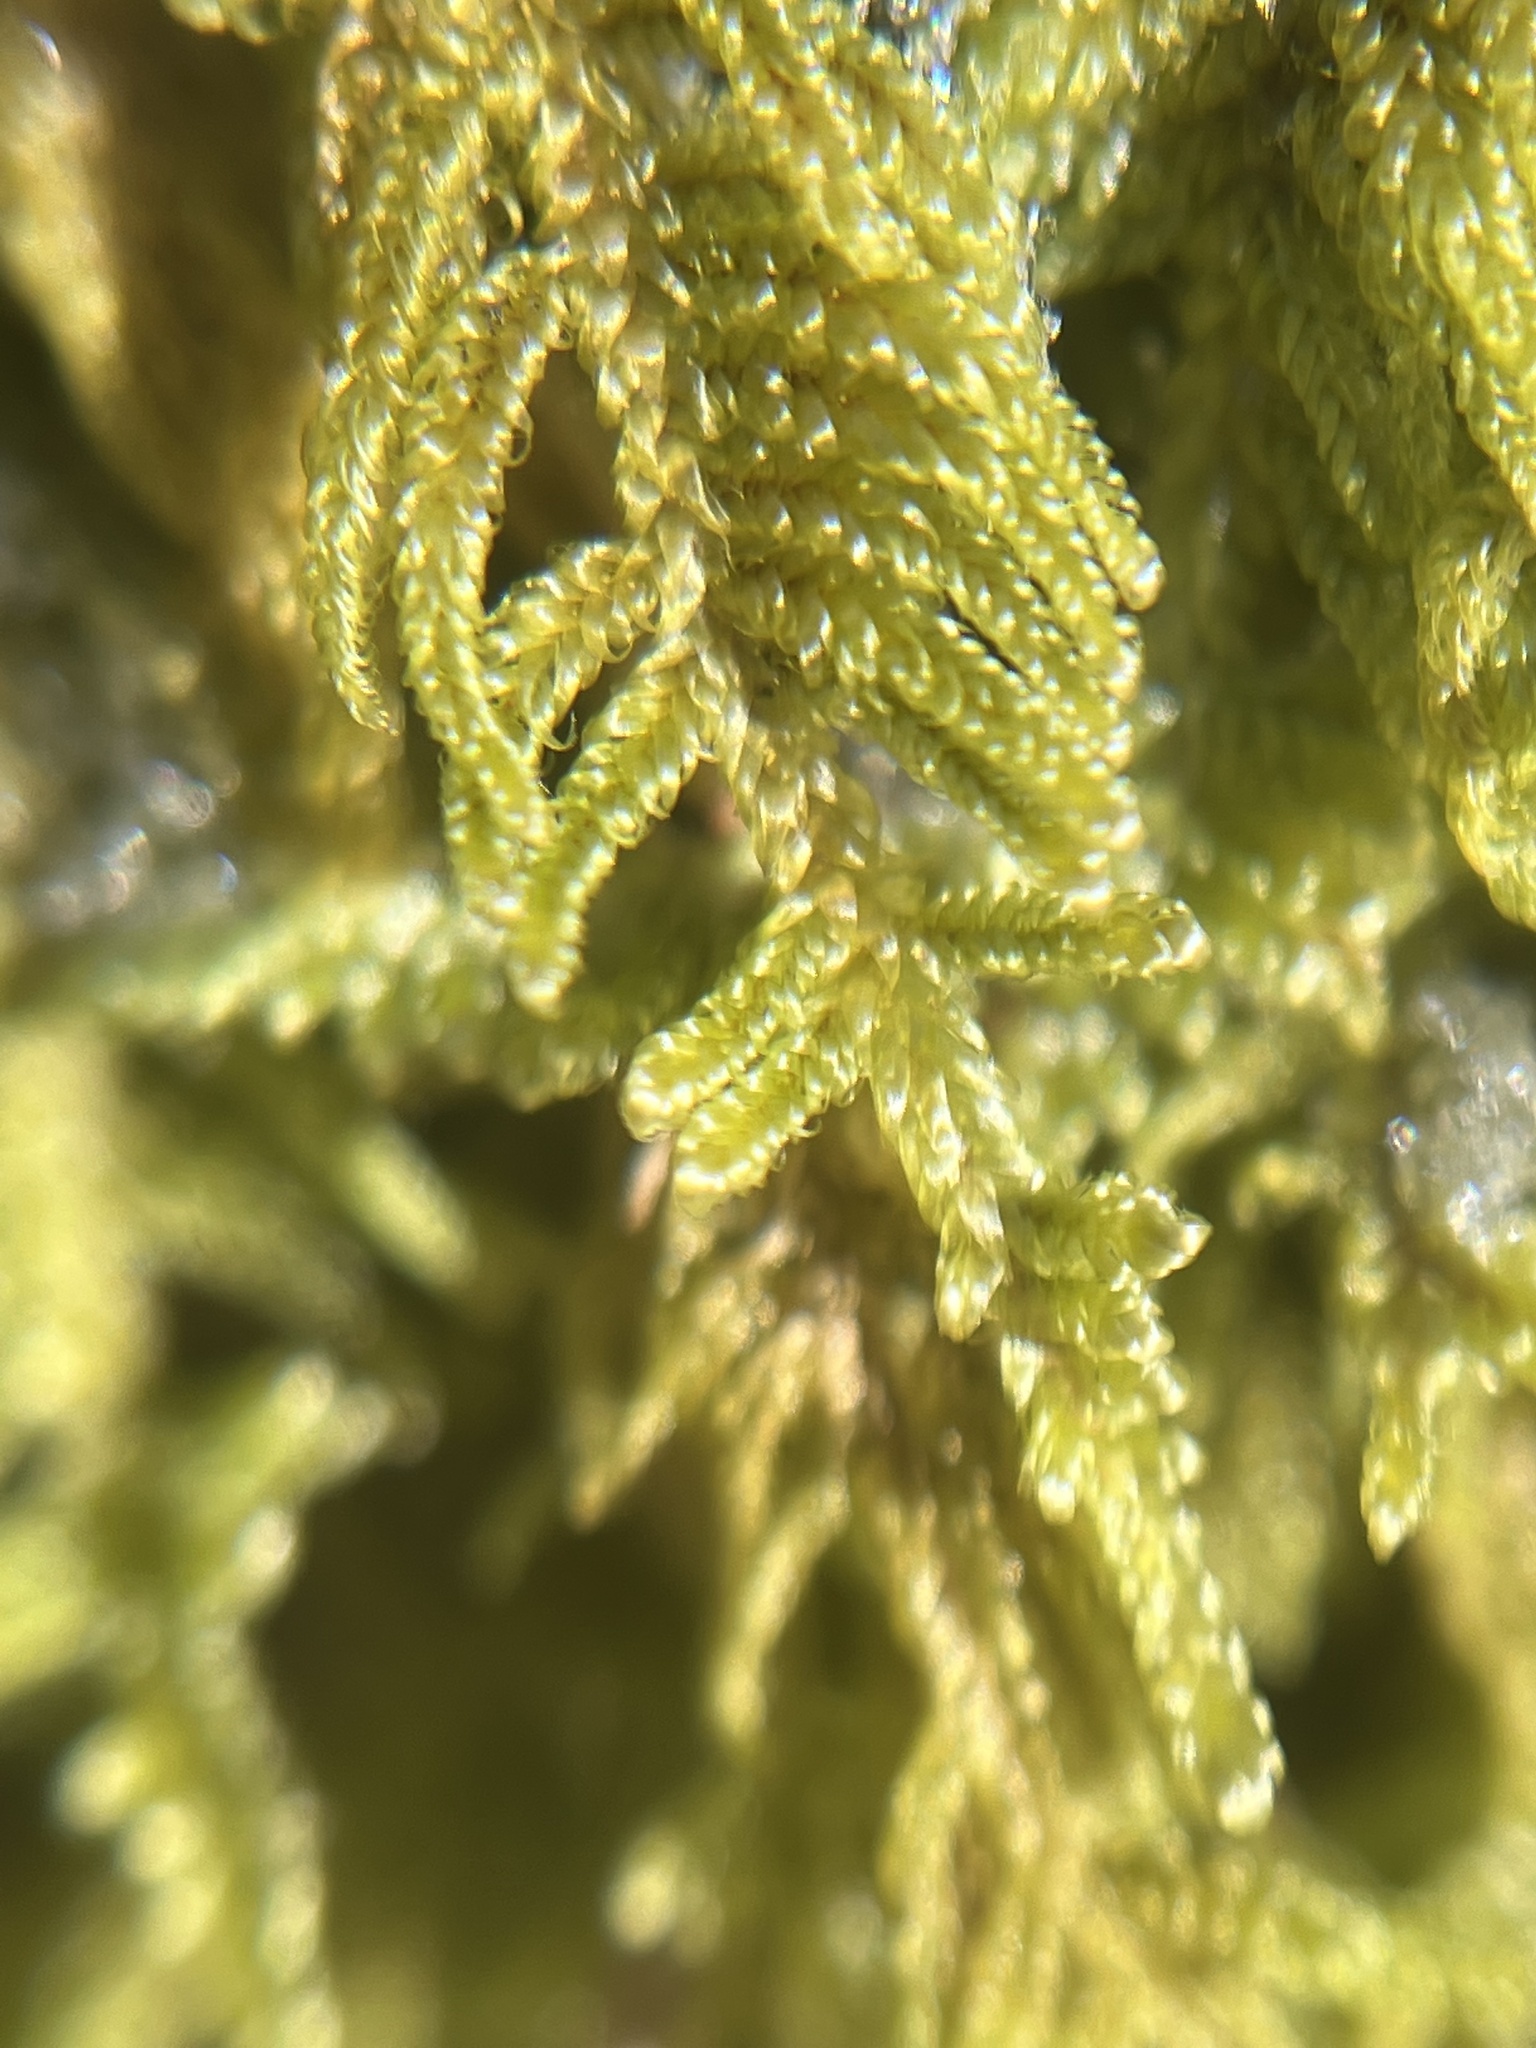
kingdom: Plantae
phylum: Bryophyta
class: Bryopsida
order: Hypnales
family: Callicladiaceae
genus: Callicladium
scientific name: Callicladium imponens
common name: Brocade moss
